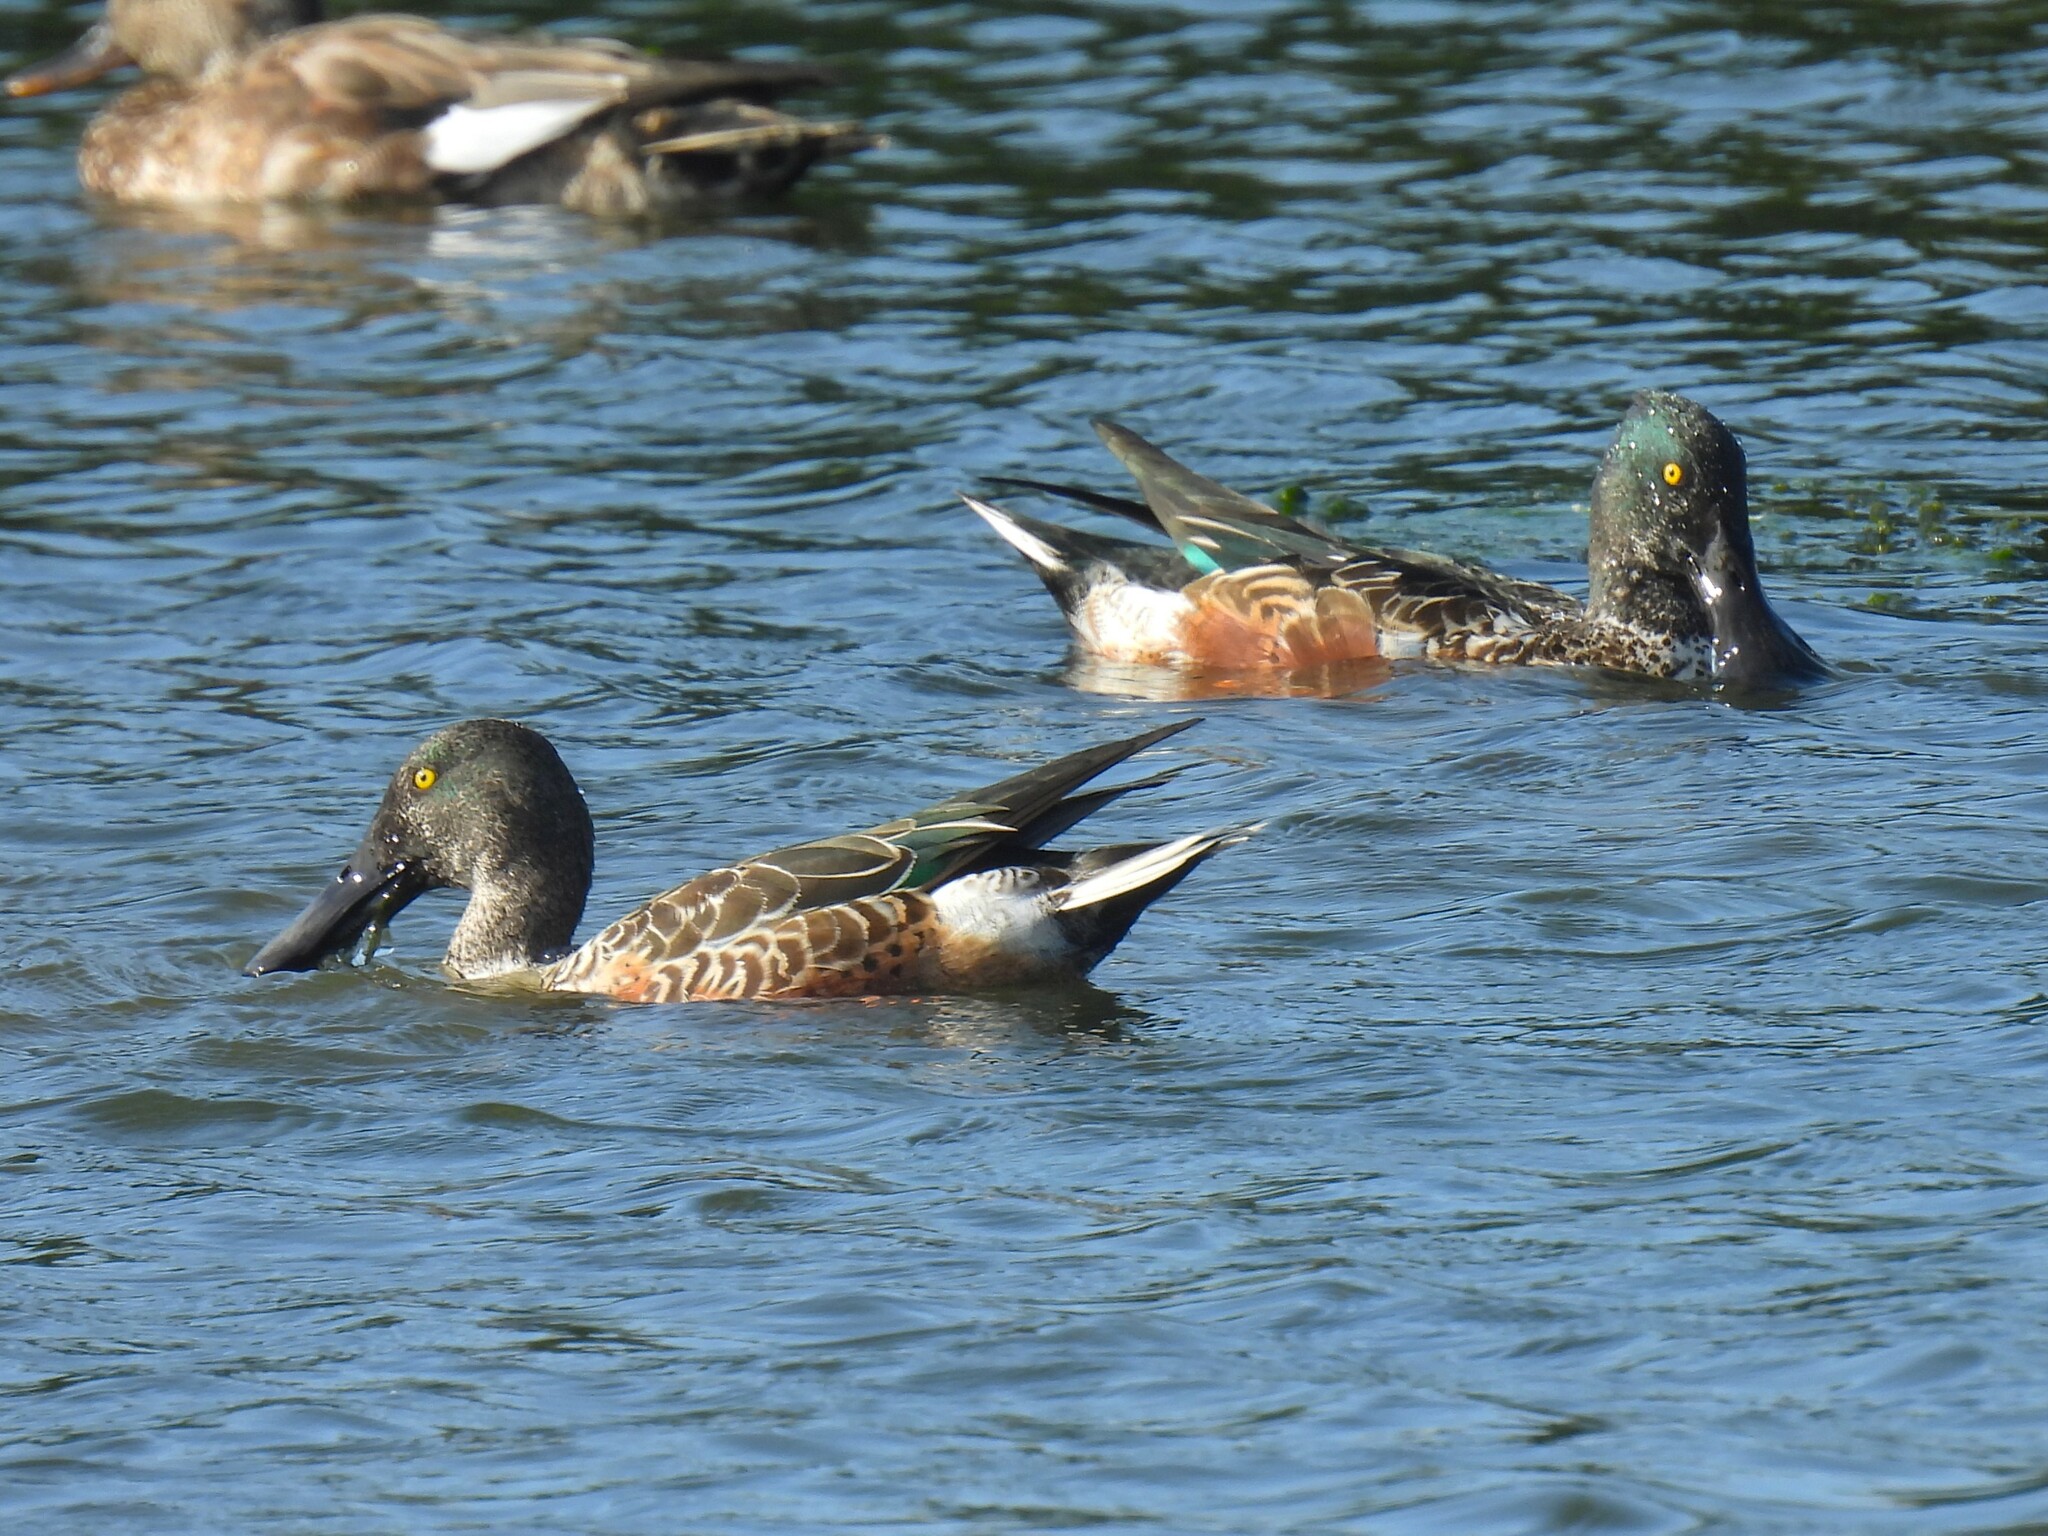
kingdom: Animalia
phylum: Chordata
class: Aves
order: Anseriformes
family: Anatidae
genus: Spatula
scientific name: Spatula clypeata
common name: Northern shoveler
